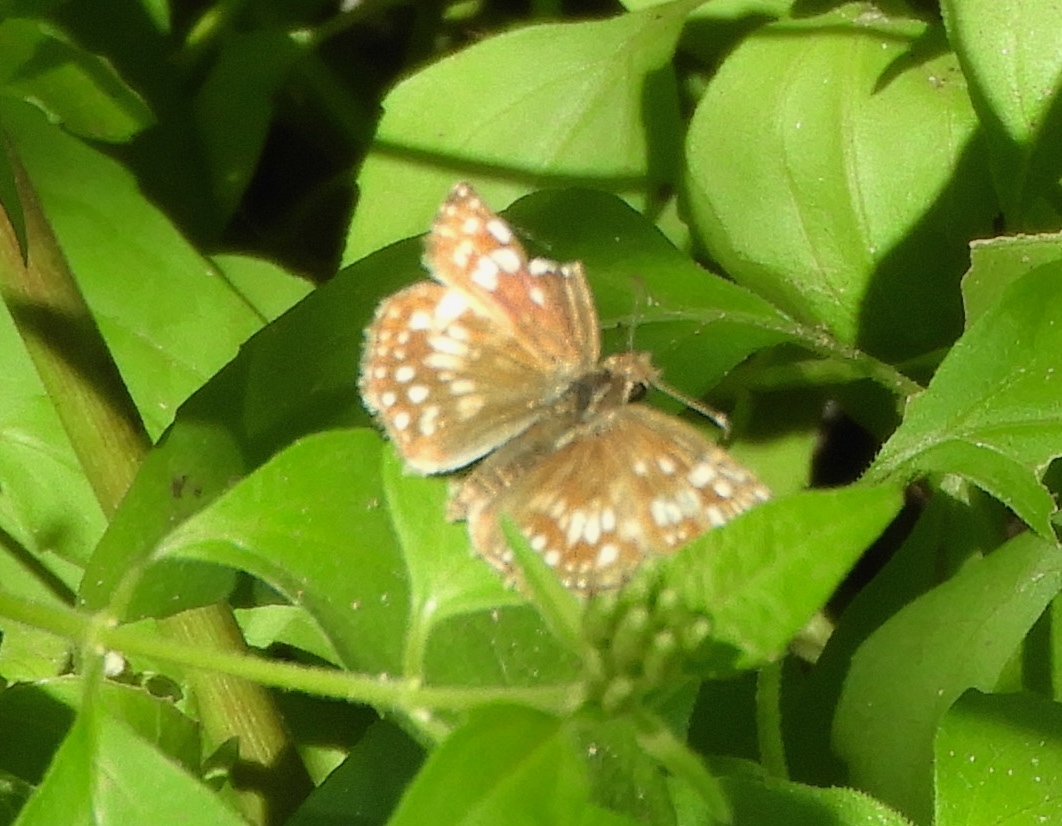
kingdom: Animalia
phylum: Arthropoda
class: Insecta
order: Lepidoptera
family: Hesperiidae
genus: Pyrgus
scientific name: Pyrgus oileus
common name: Tropical checkered-skipper
